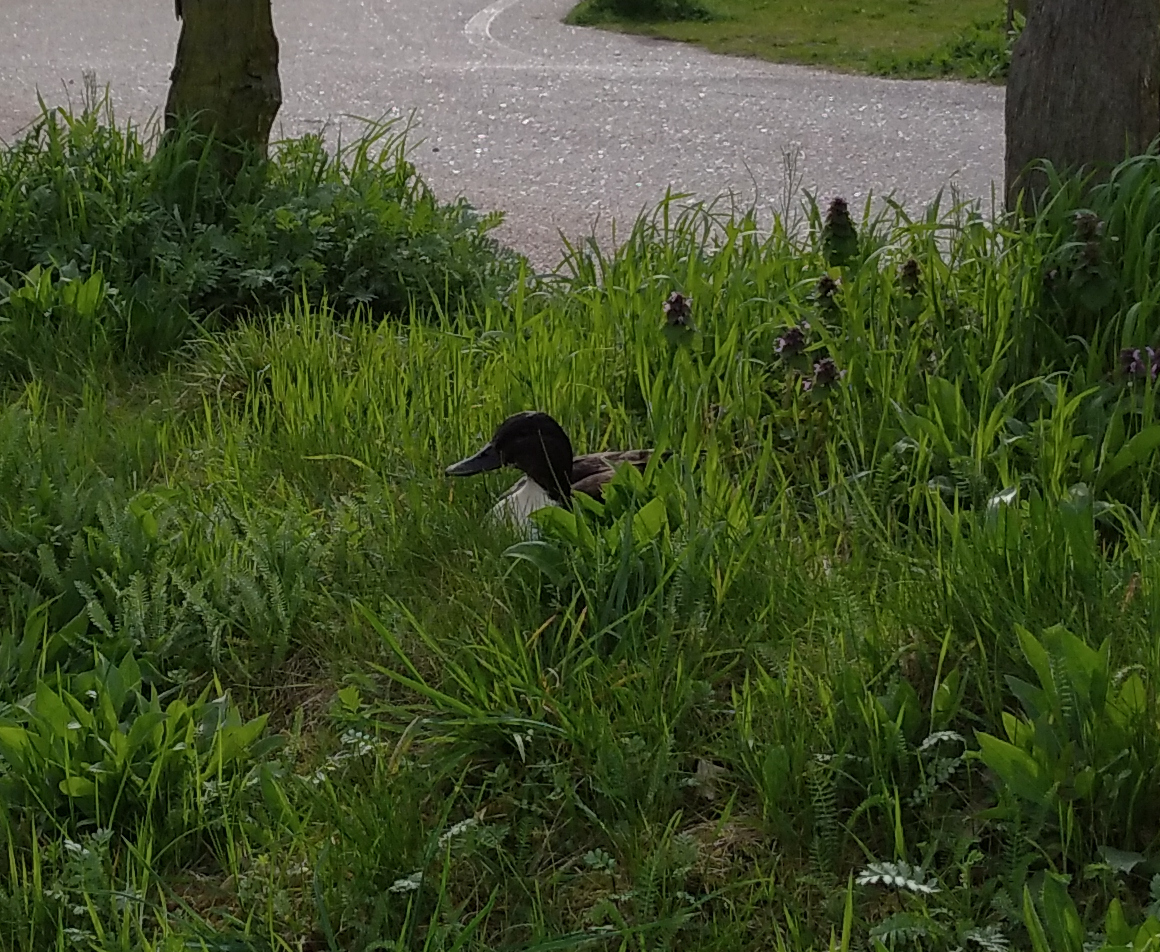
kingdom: Animalia
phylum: Chordata
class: Aves
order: Anseriformes
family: Anatidae
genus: Anas
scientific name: Anas platyrhynchos
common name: Mallard
